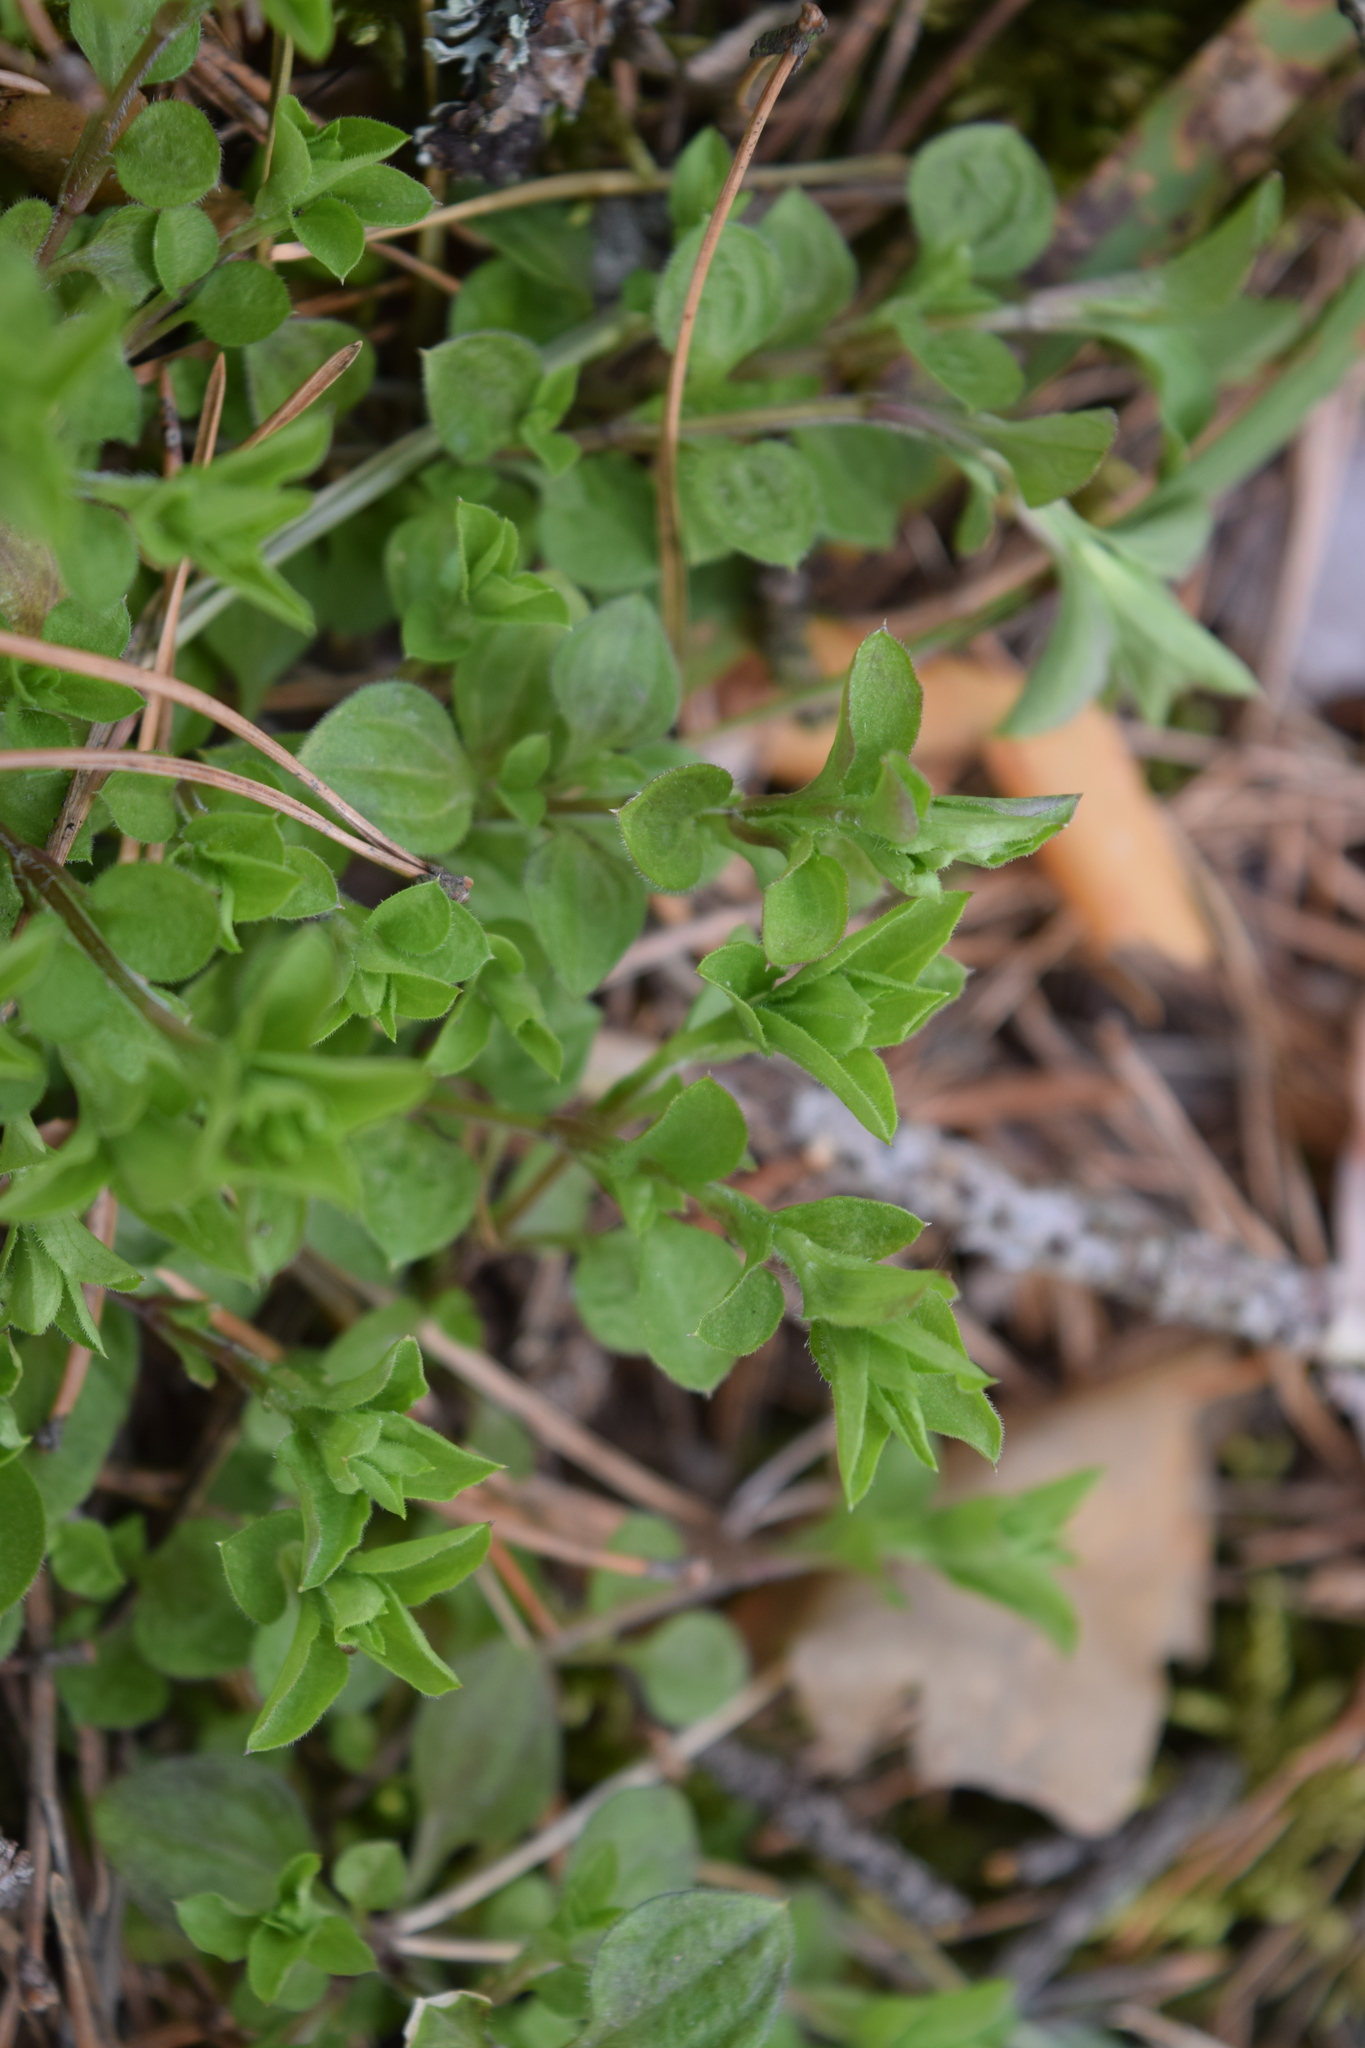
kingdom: Plantae
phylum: Tracheophyta
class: Magnoliopsida
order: Caryophyllales
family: Caryophyllaceae
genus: Moehringia
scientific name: Moehringia trinervia
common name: Three-nerved sandwort
